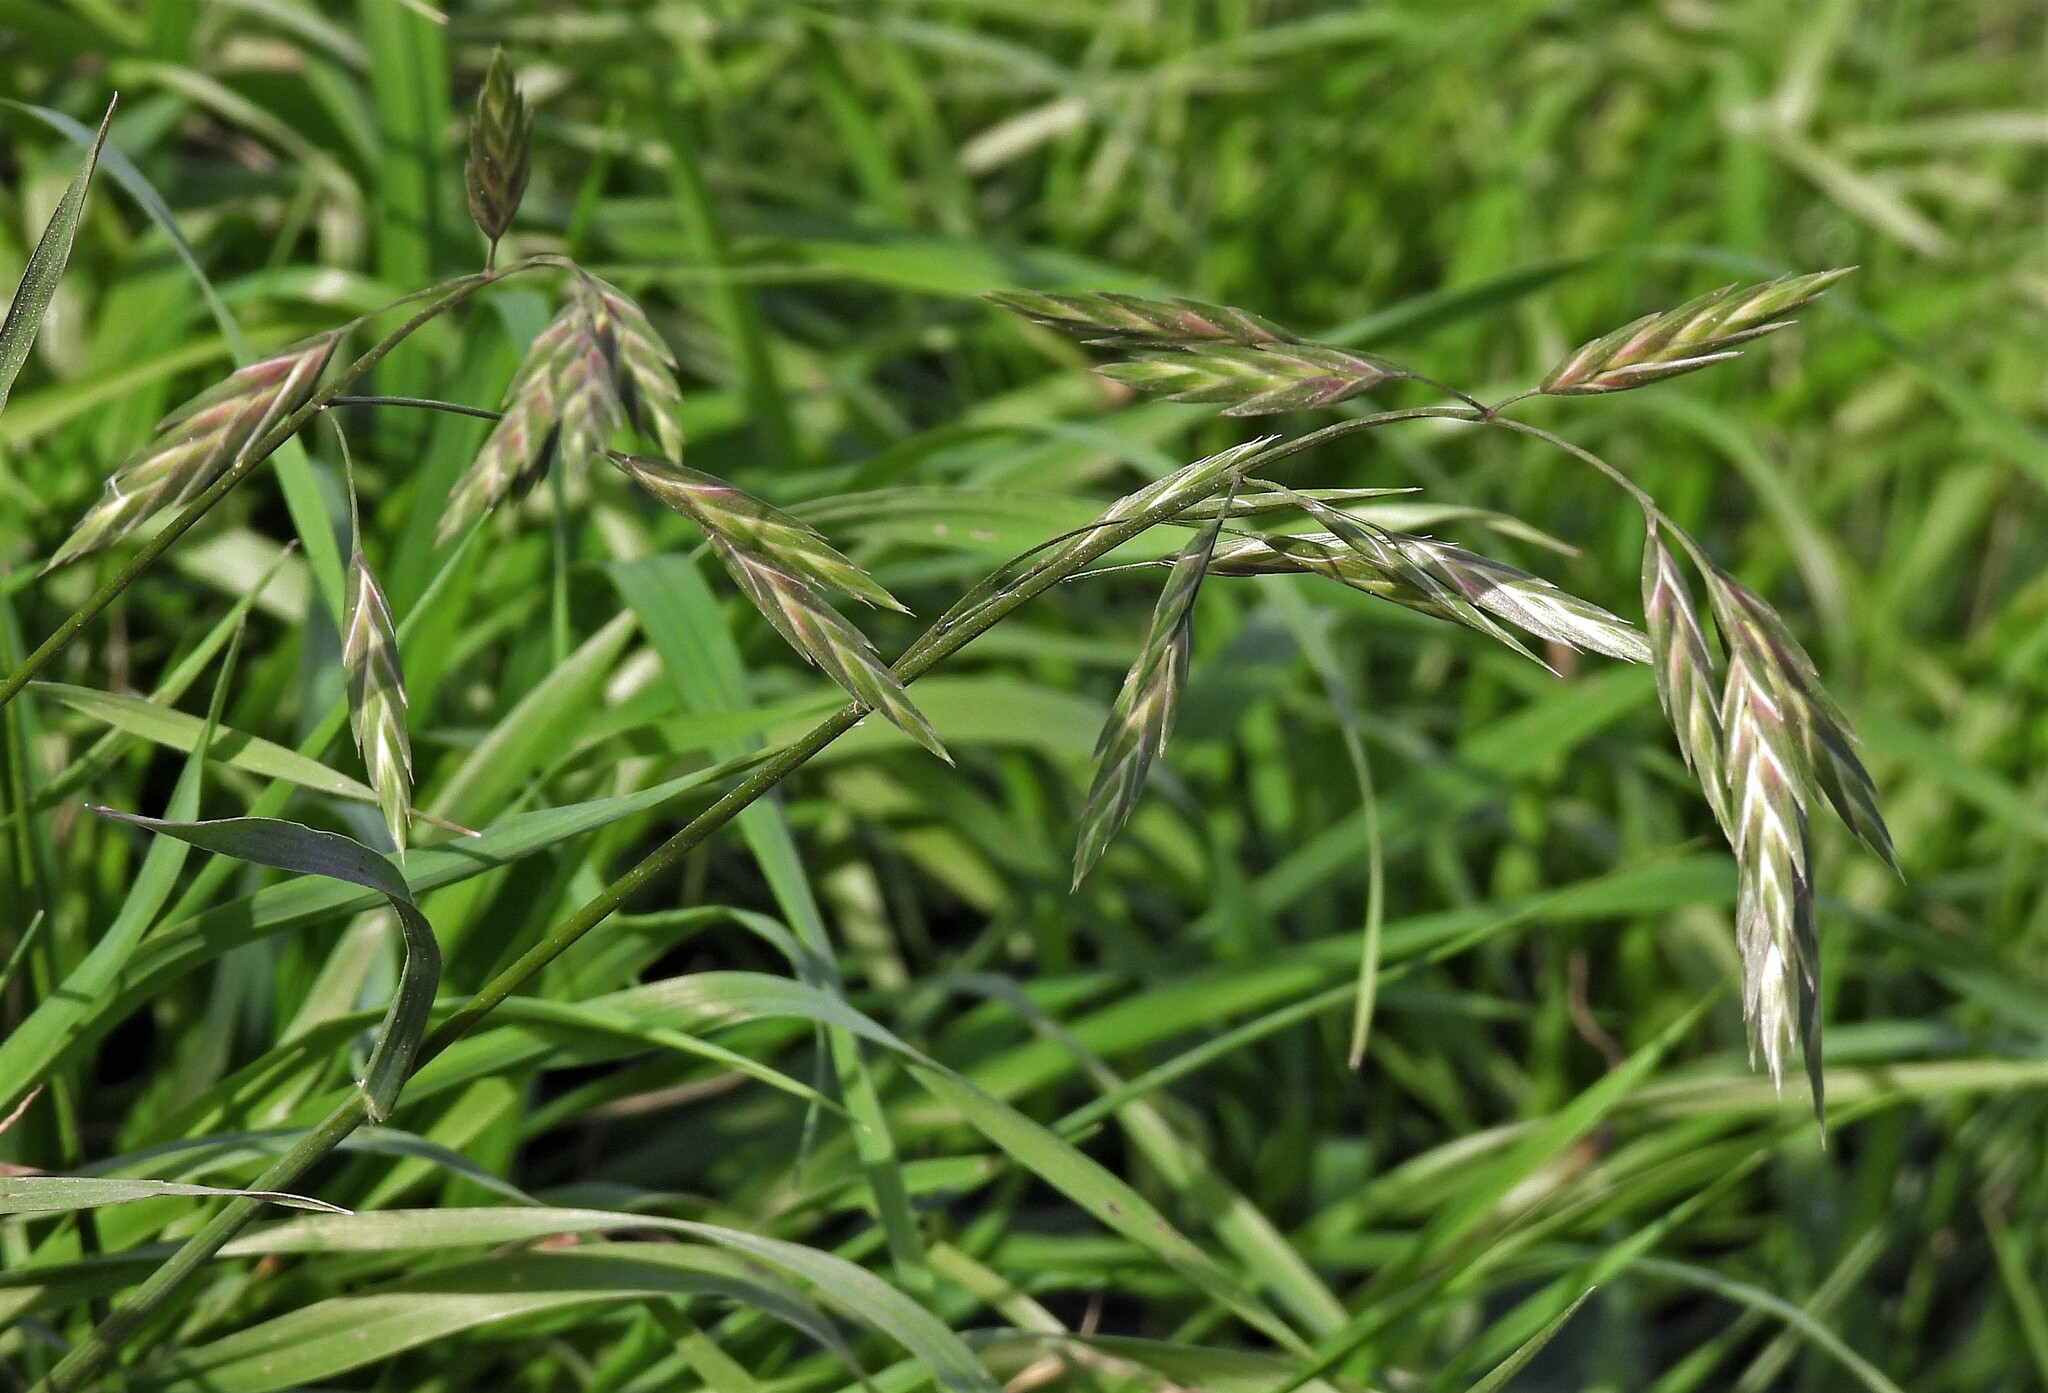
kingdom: Plantae
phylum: Tracheophyta
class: Liliopsida
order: Poales
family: Poaceae
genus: Bromus
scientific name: Bromus catharticus
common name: Rescuegrass
